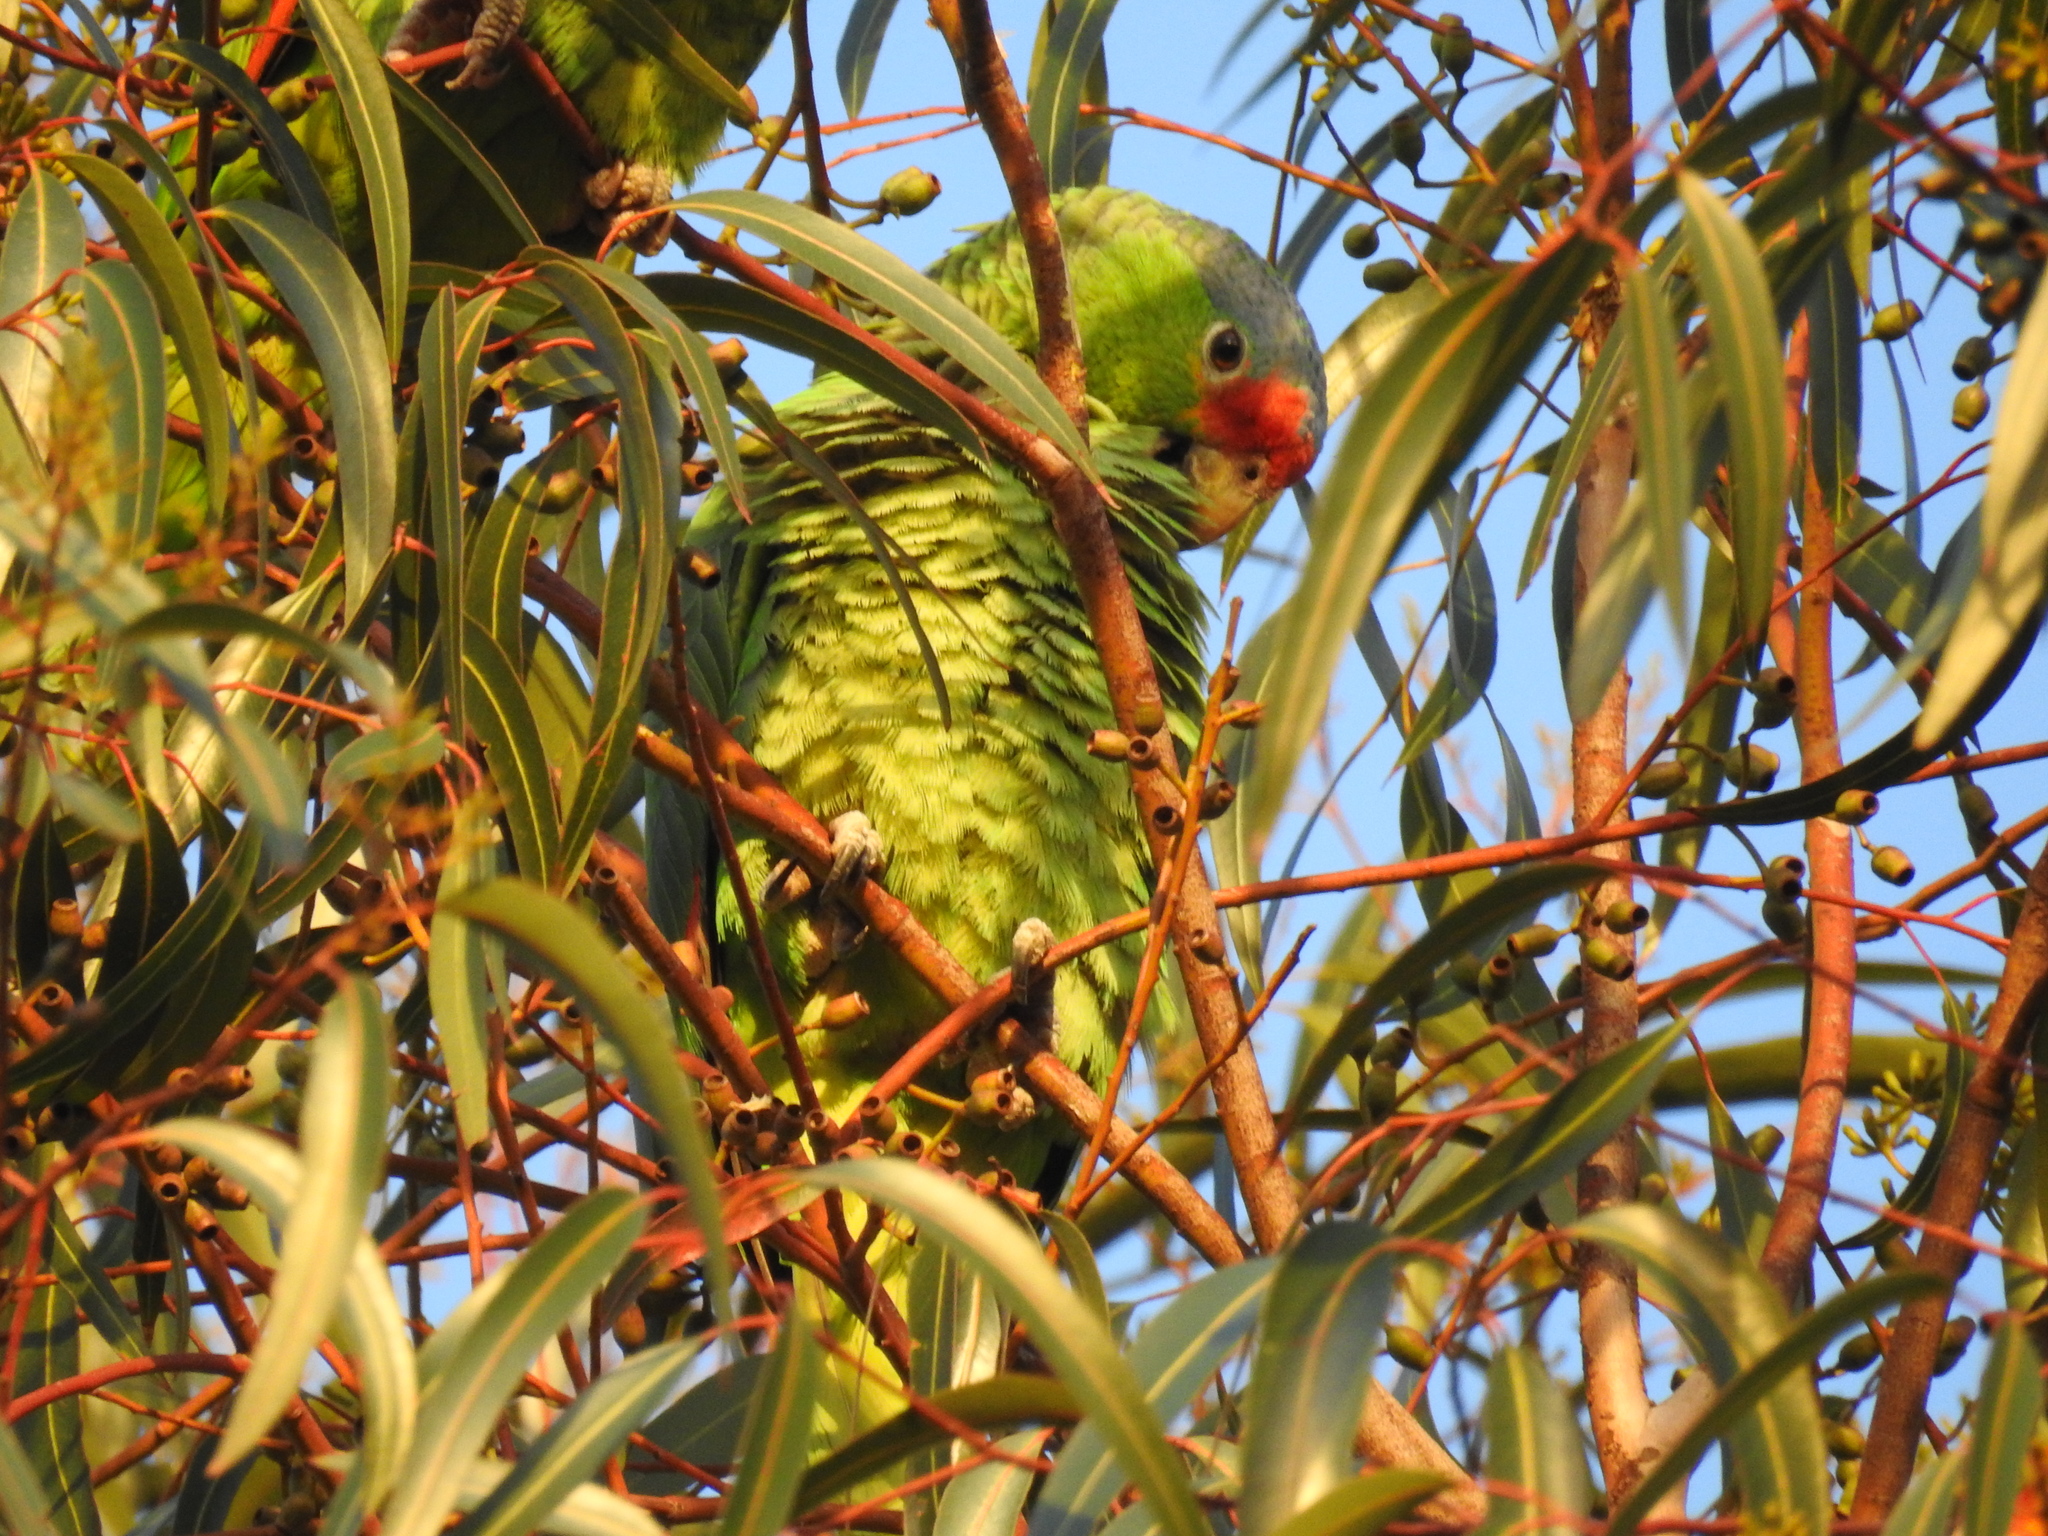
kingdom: Animalia
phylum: Chordata
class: Aves
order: Psittaciformes
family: Psittacidae
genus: Amazona
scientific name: Amazona viridigenalis
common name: Red-crowned amazon
